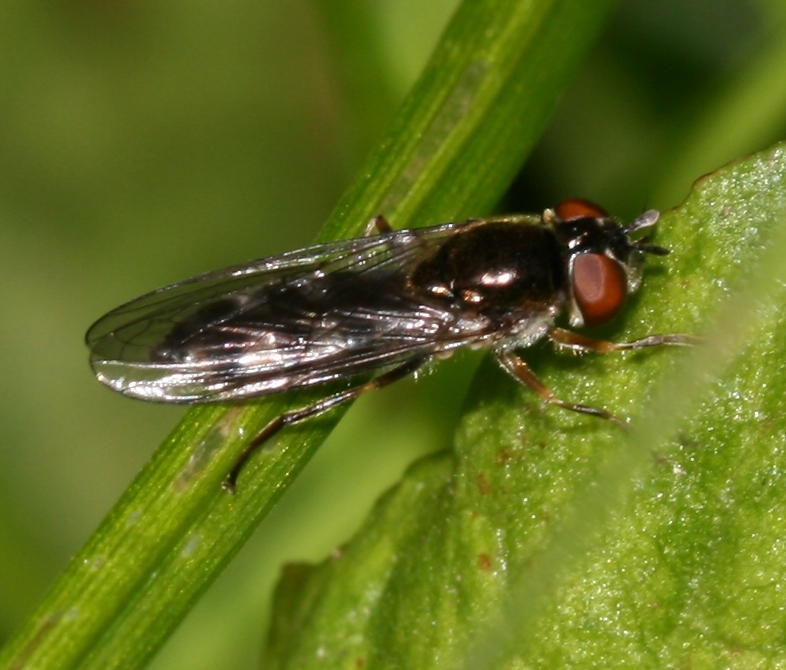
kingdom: Animalia
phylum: Arthropoda
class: Insecta
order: Diptera
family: Syrphidae
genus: Platycheirus
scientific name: Platycheirus albimanus
